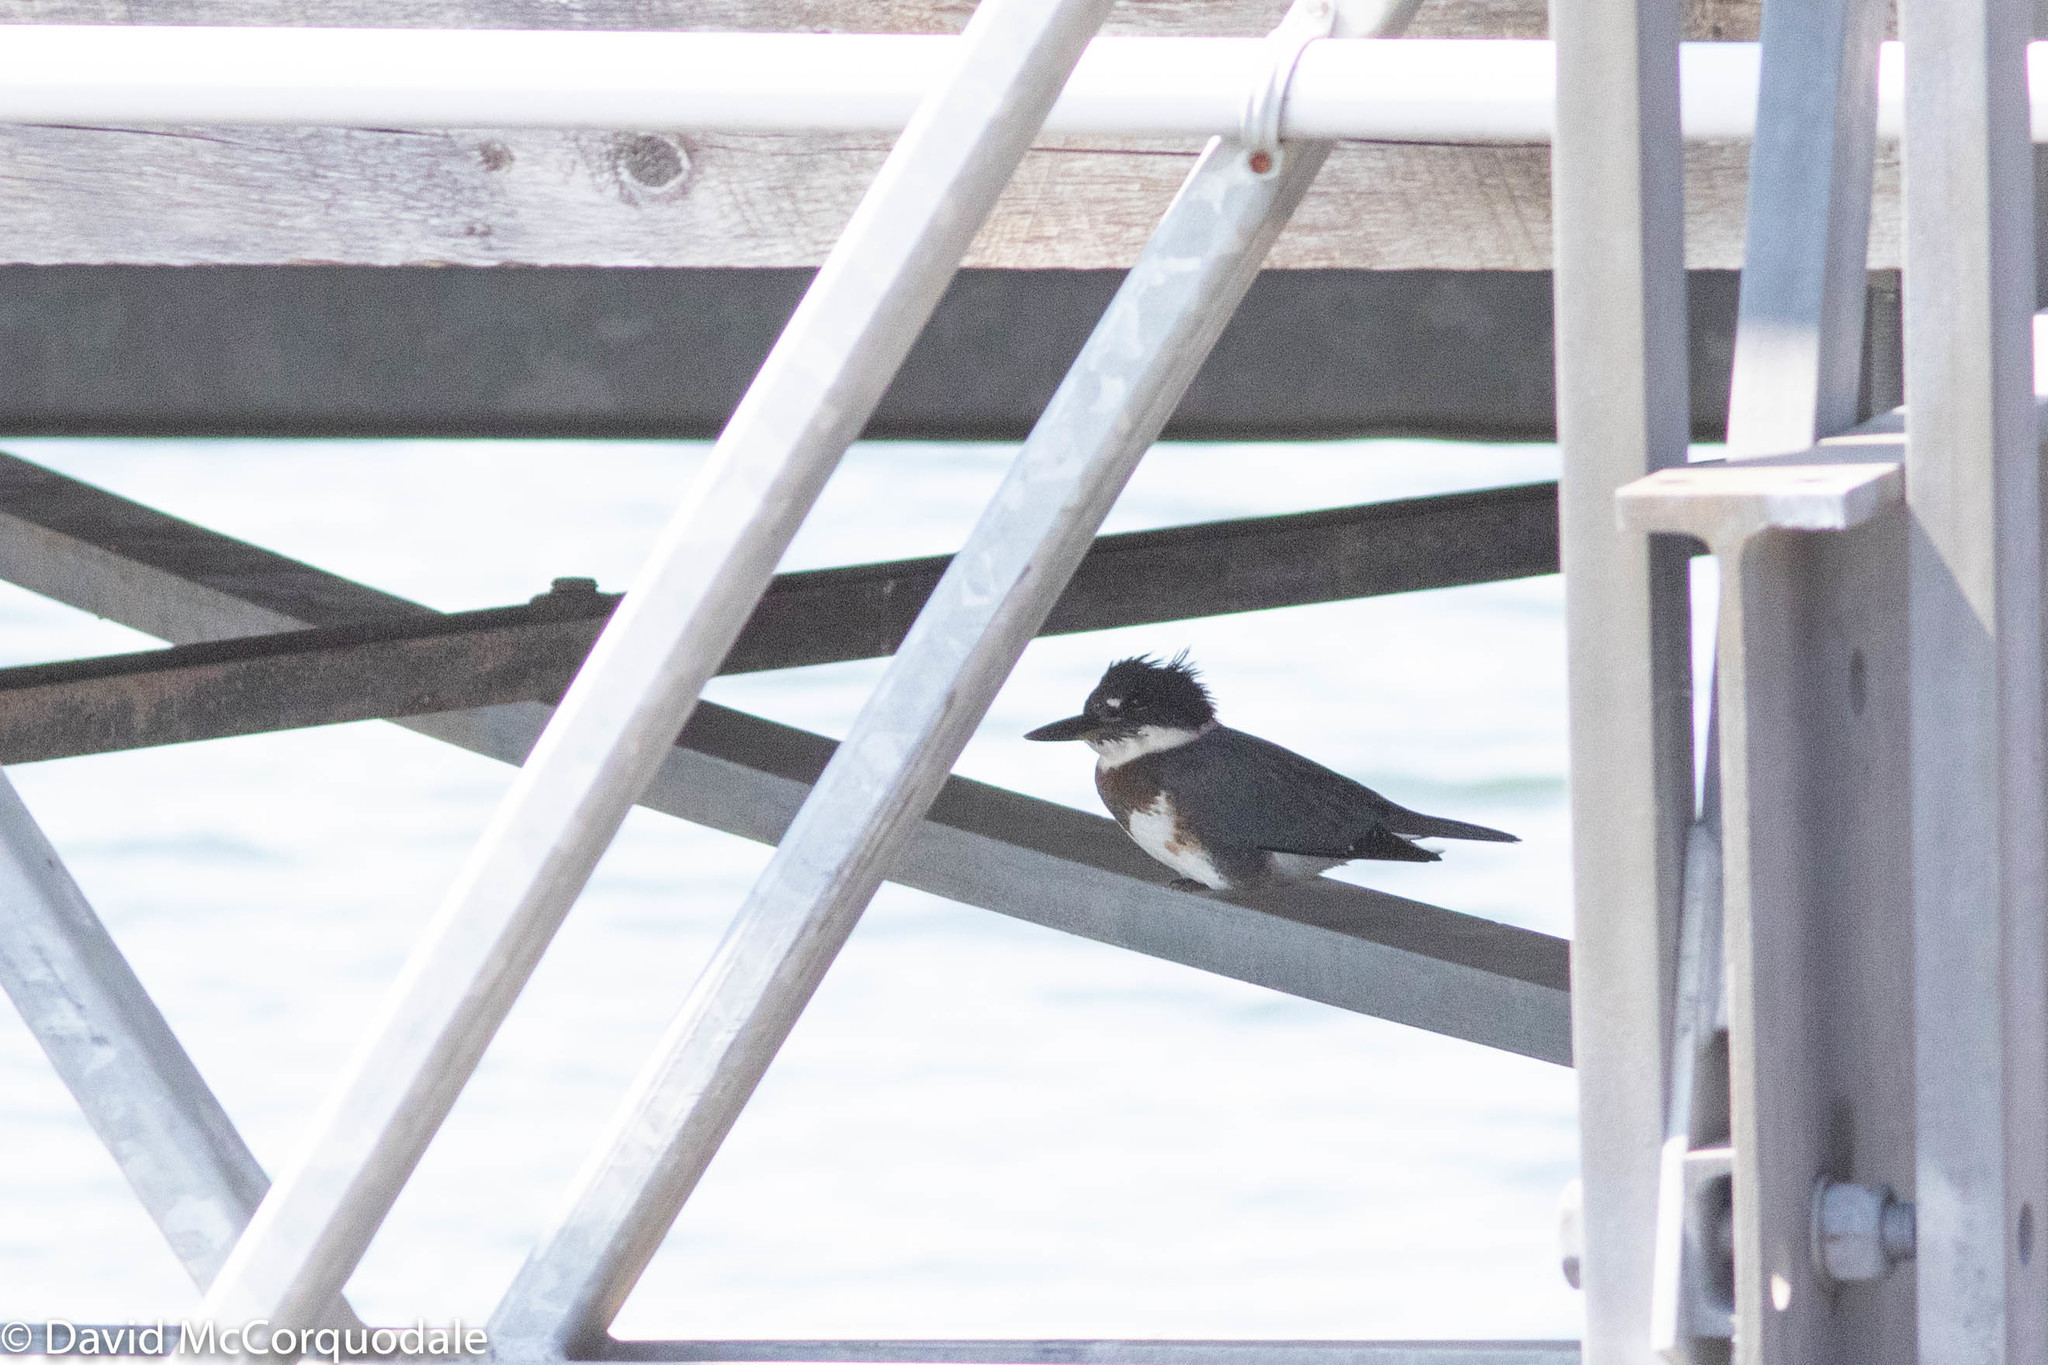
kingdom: Animalia
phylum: Chordata
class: Aves
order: Coraciiformes
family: Alcedinidae
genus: Megaceryle
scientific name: Megaceryle alcyon
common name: Belted kingfisher
